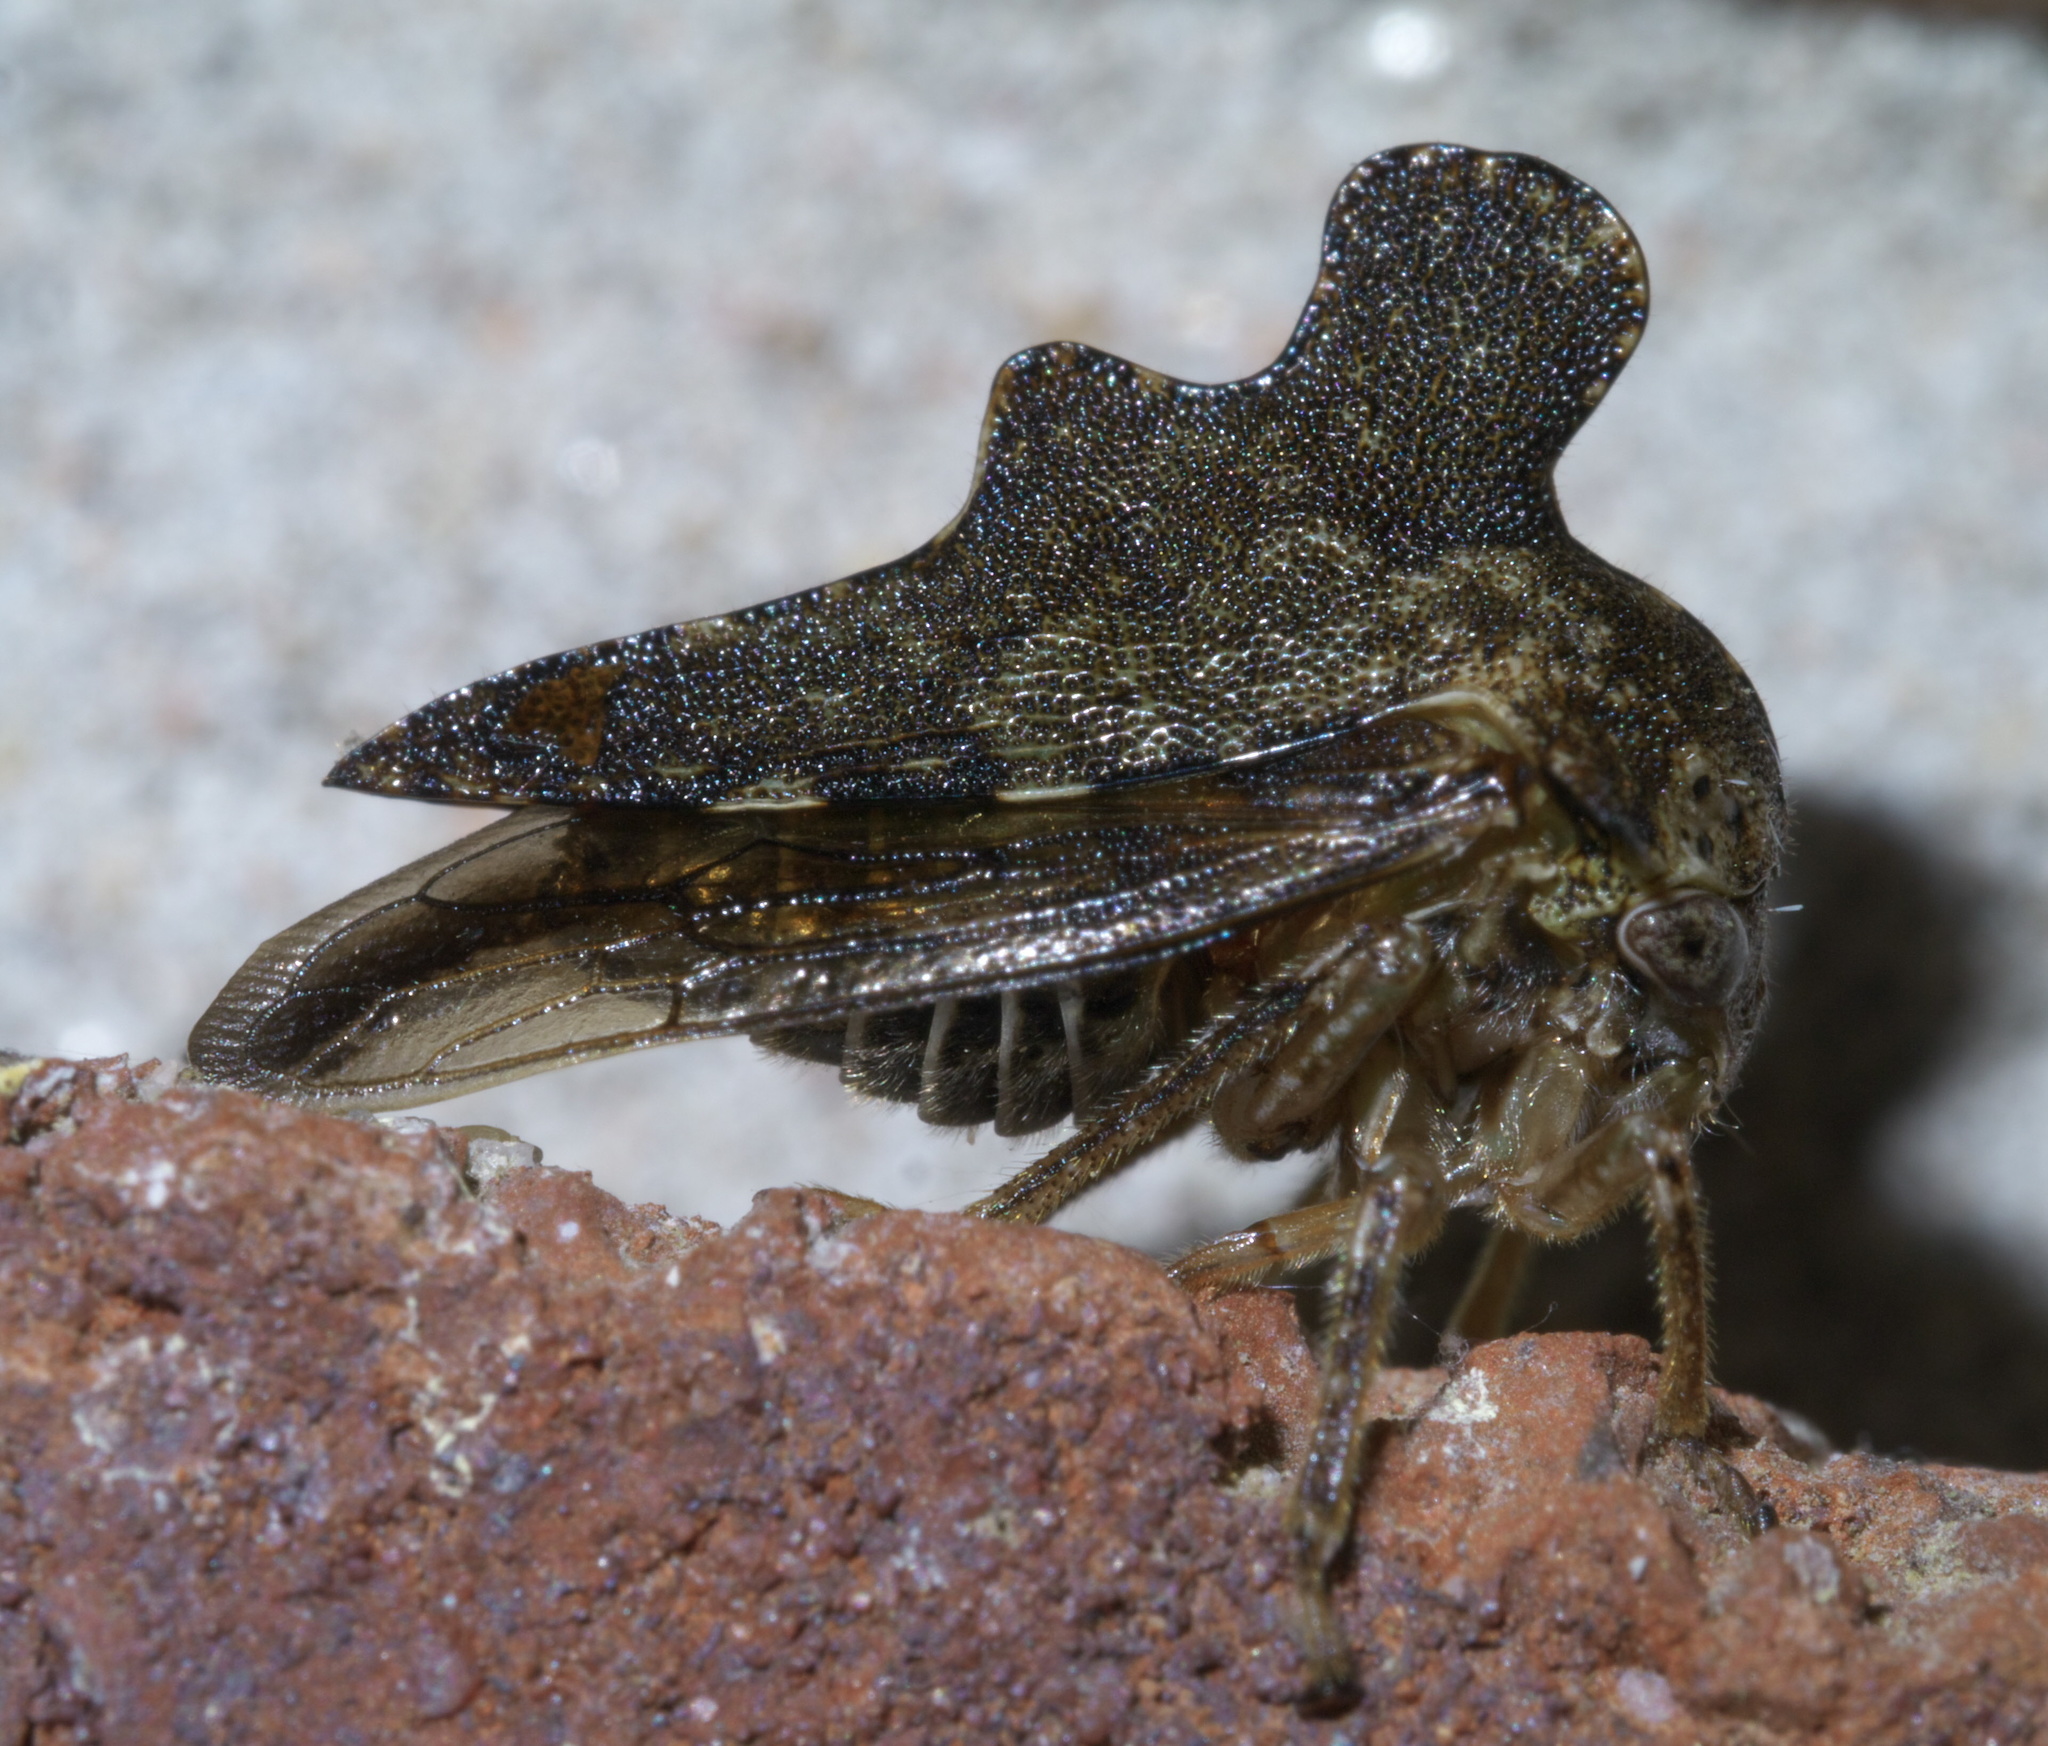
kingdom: Animalia
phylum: Arthropoda
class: Insecta
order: Hemiptera
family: Membracidae
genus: Heliria
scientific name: Heliria cristata
